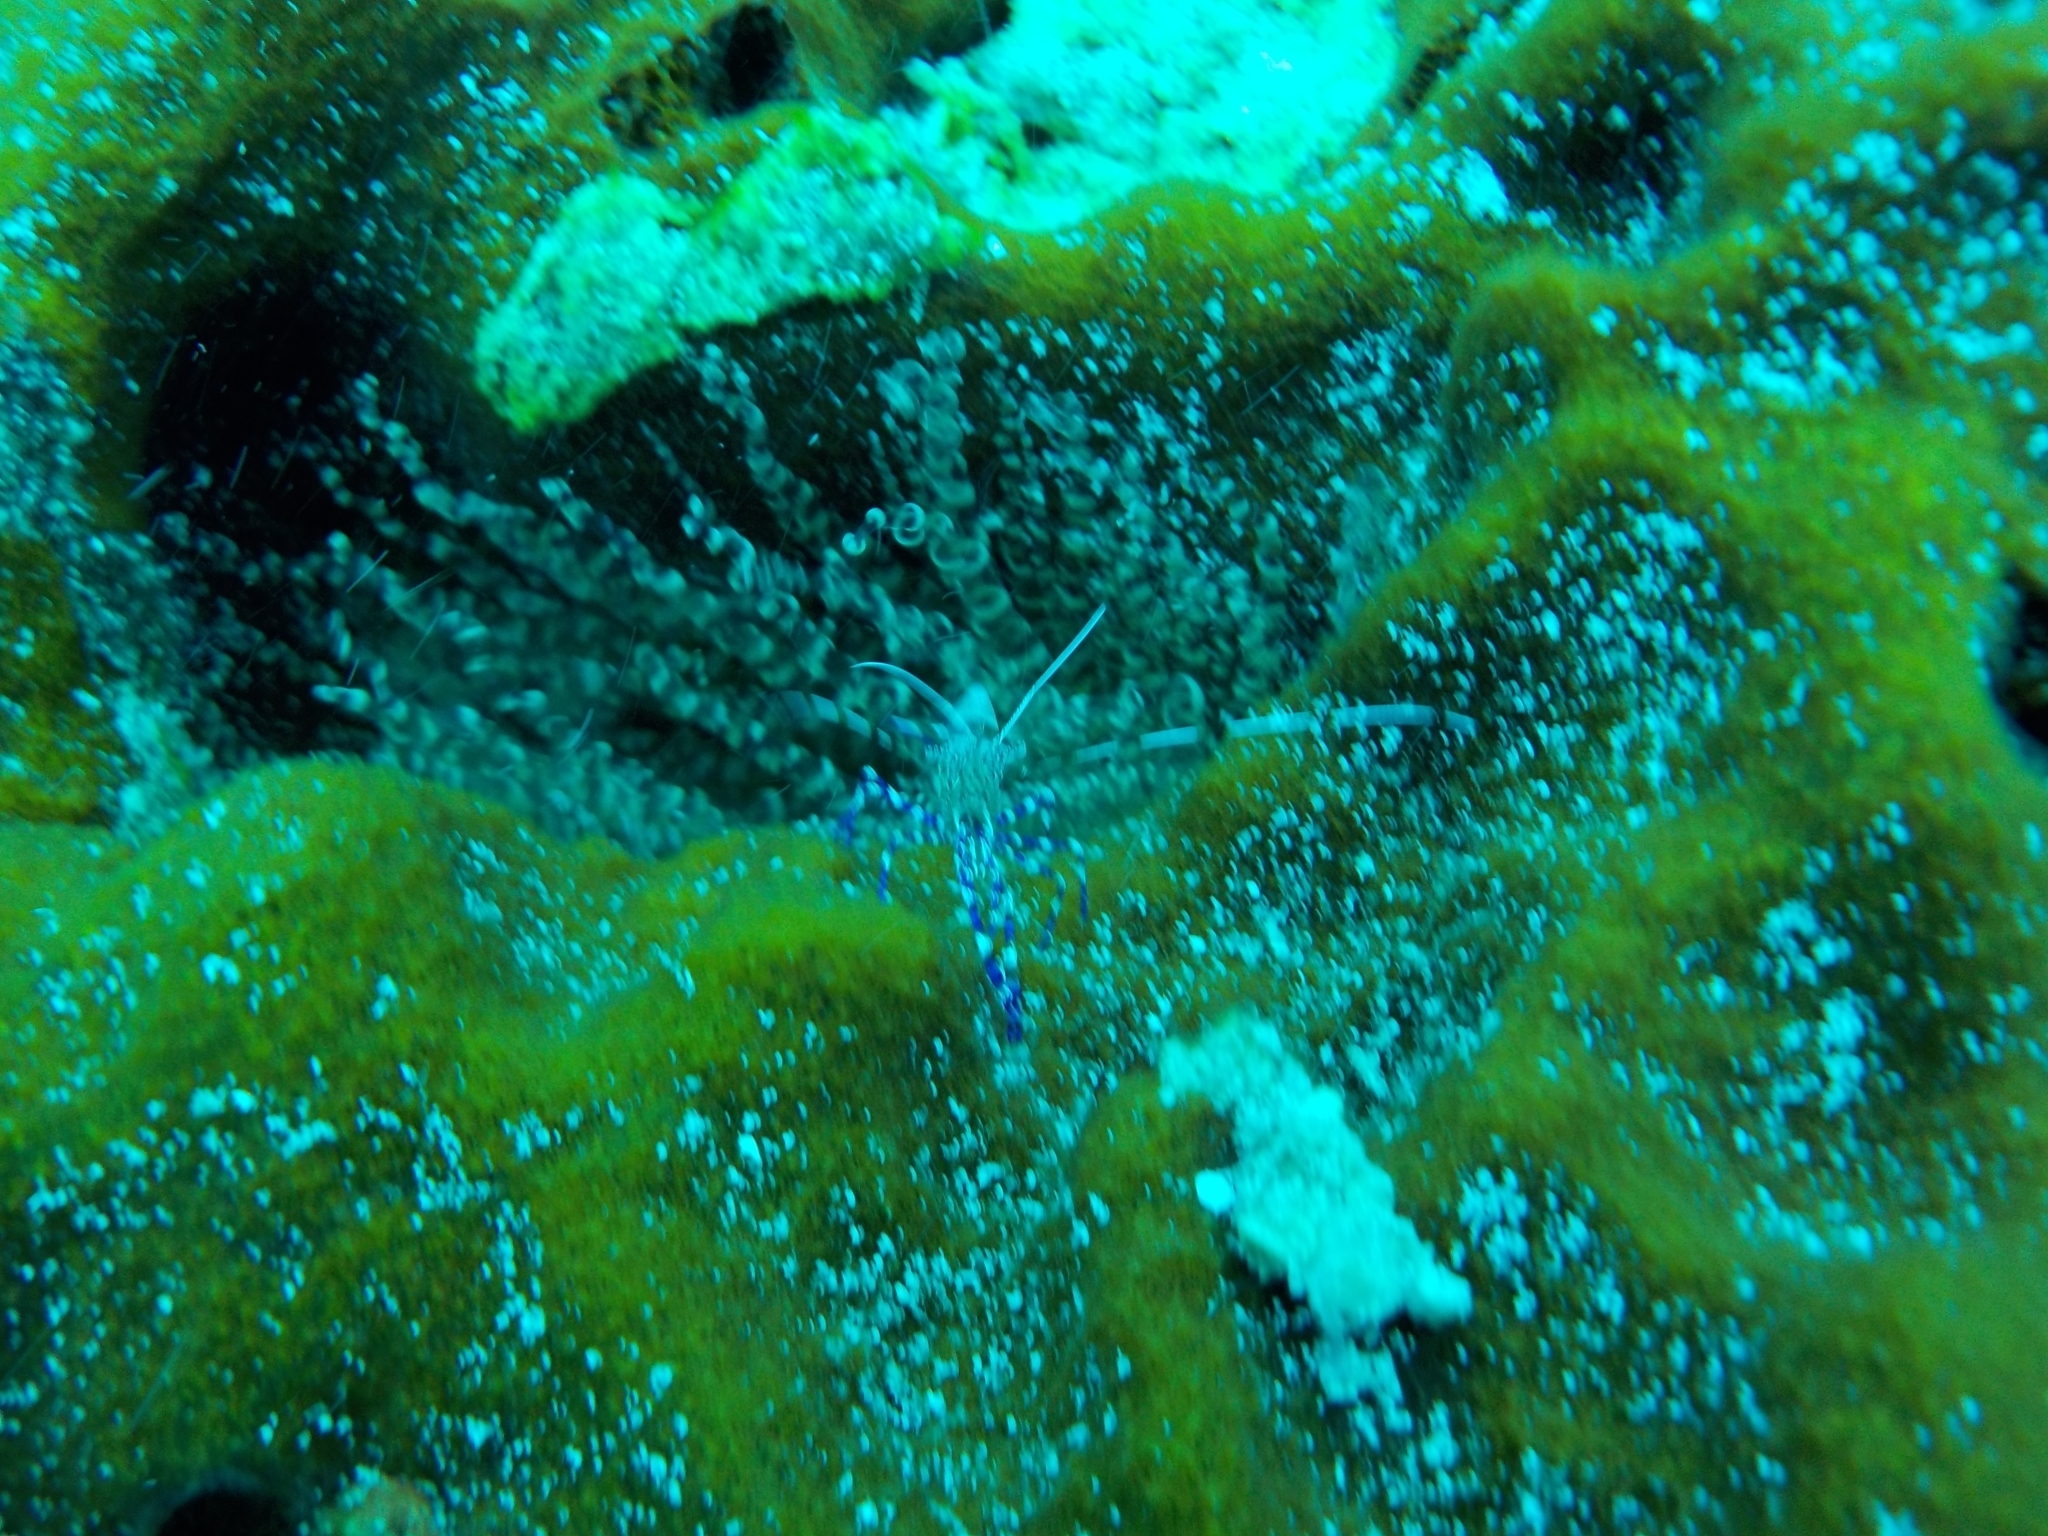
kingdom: Animalia
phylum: Arthropoda
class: Malacostraca
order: Decapoda
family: Palaemonidae
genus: Periclimenes
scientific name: Periclimenes yucatanicus
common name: Spotted cleaning shrimp
